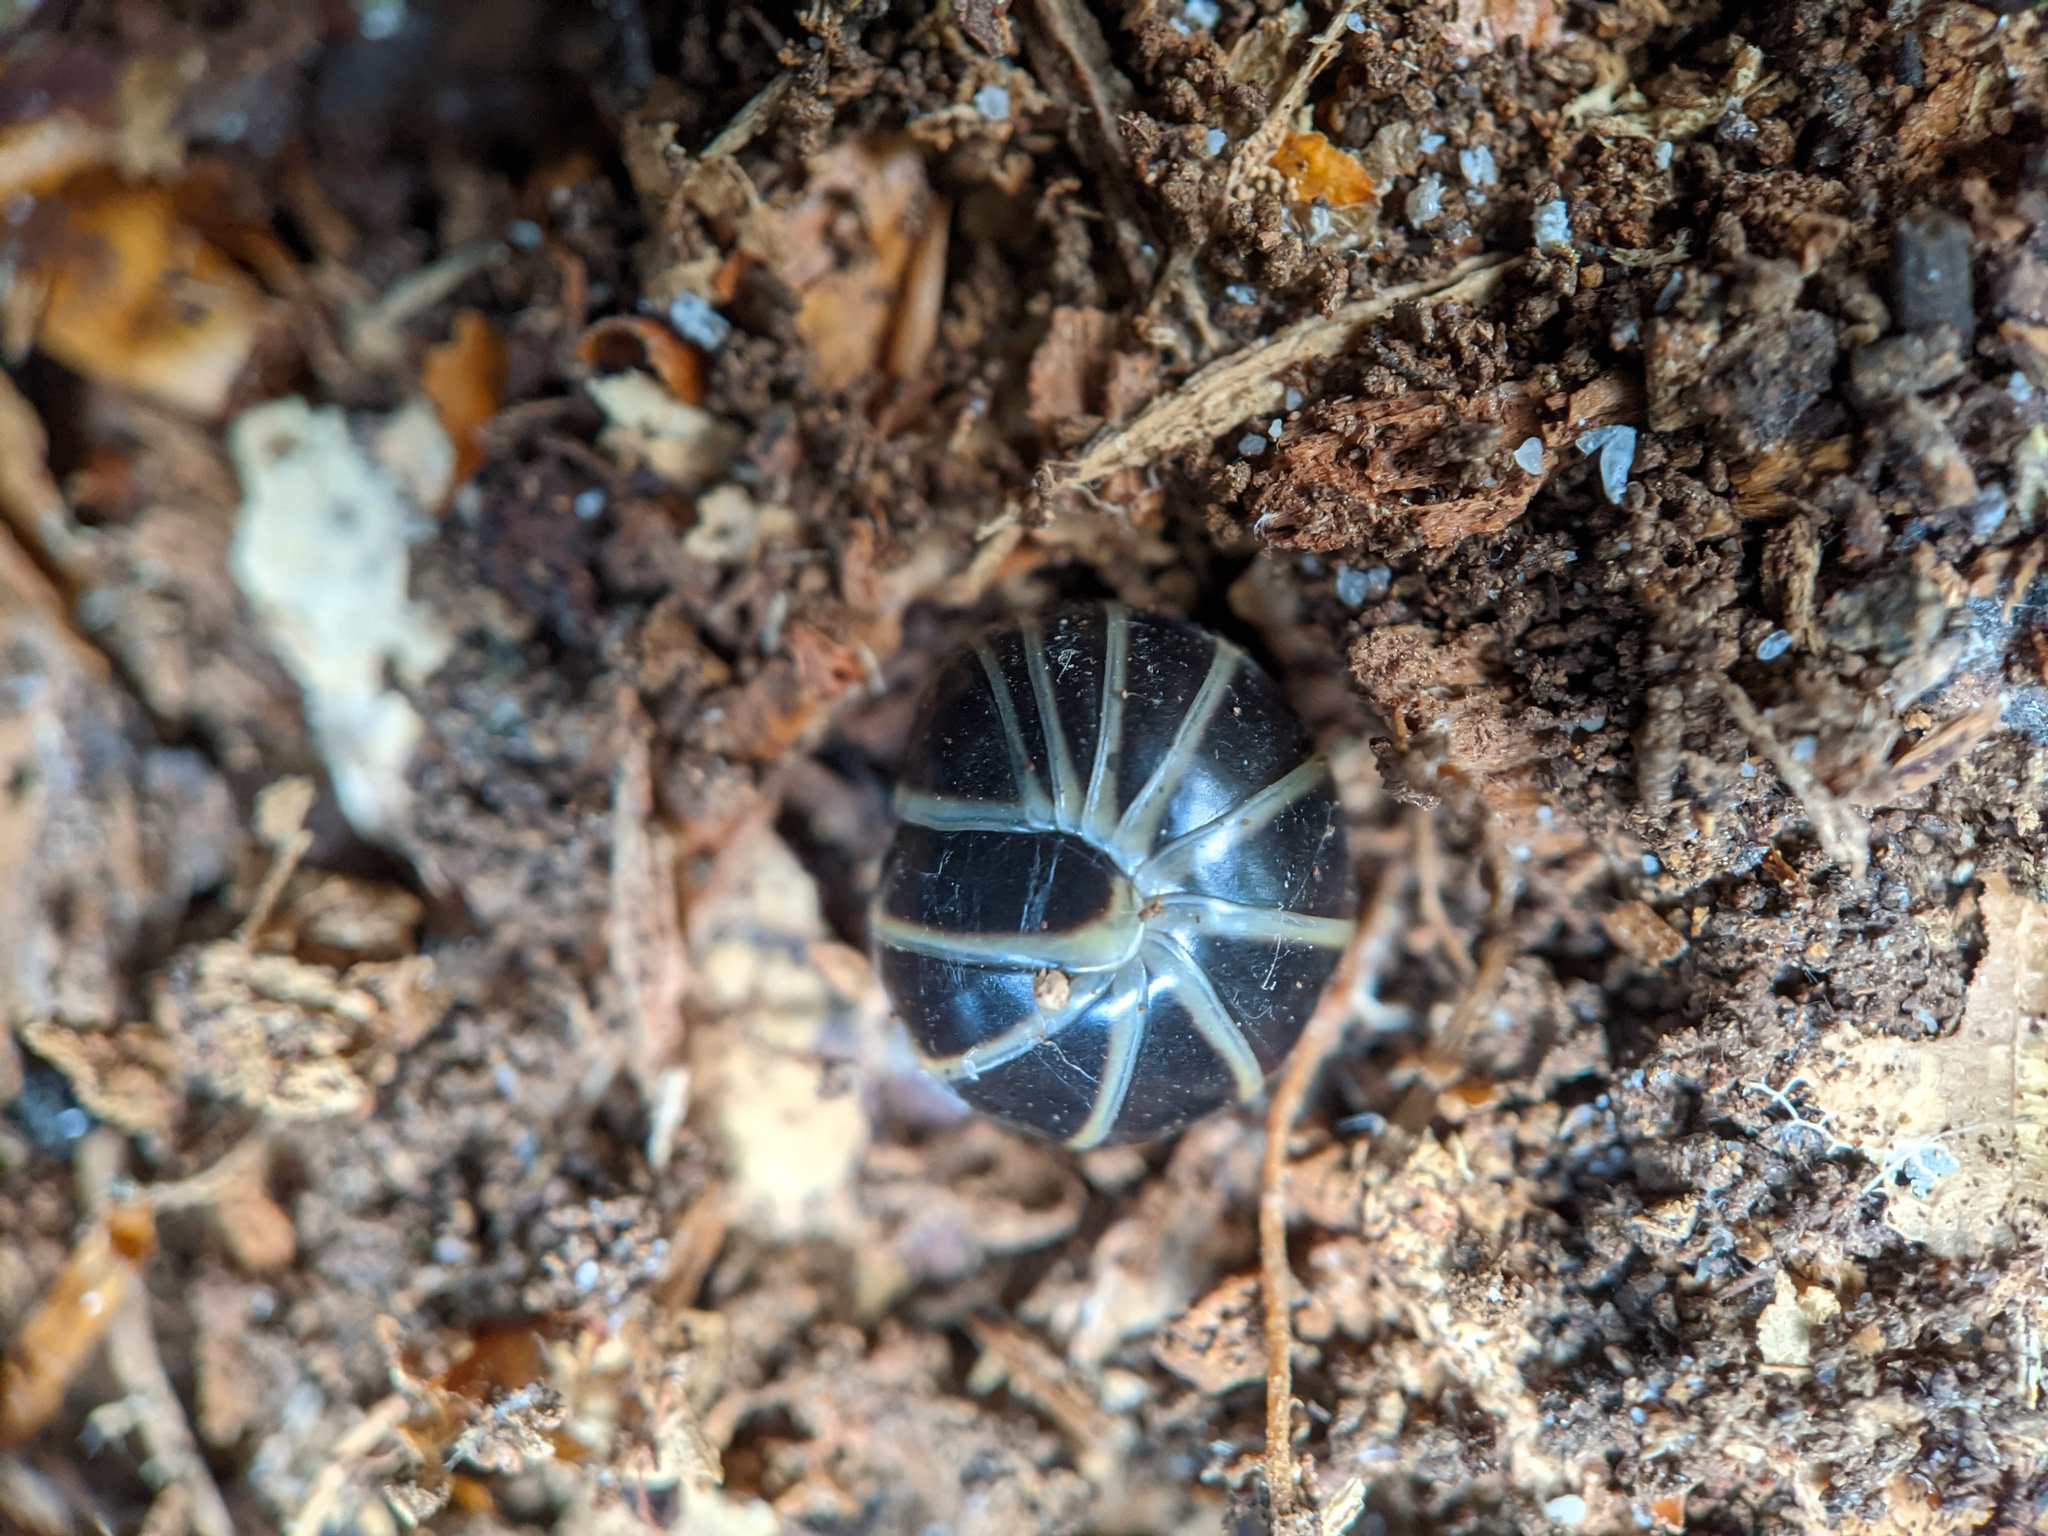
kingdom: Animalia
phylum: Arthropoda
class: Diplopoda
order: Glomerida
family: Glomeridae
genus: Glomeris
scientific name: Glomeris marginata
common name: Bordered pill millipede
